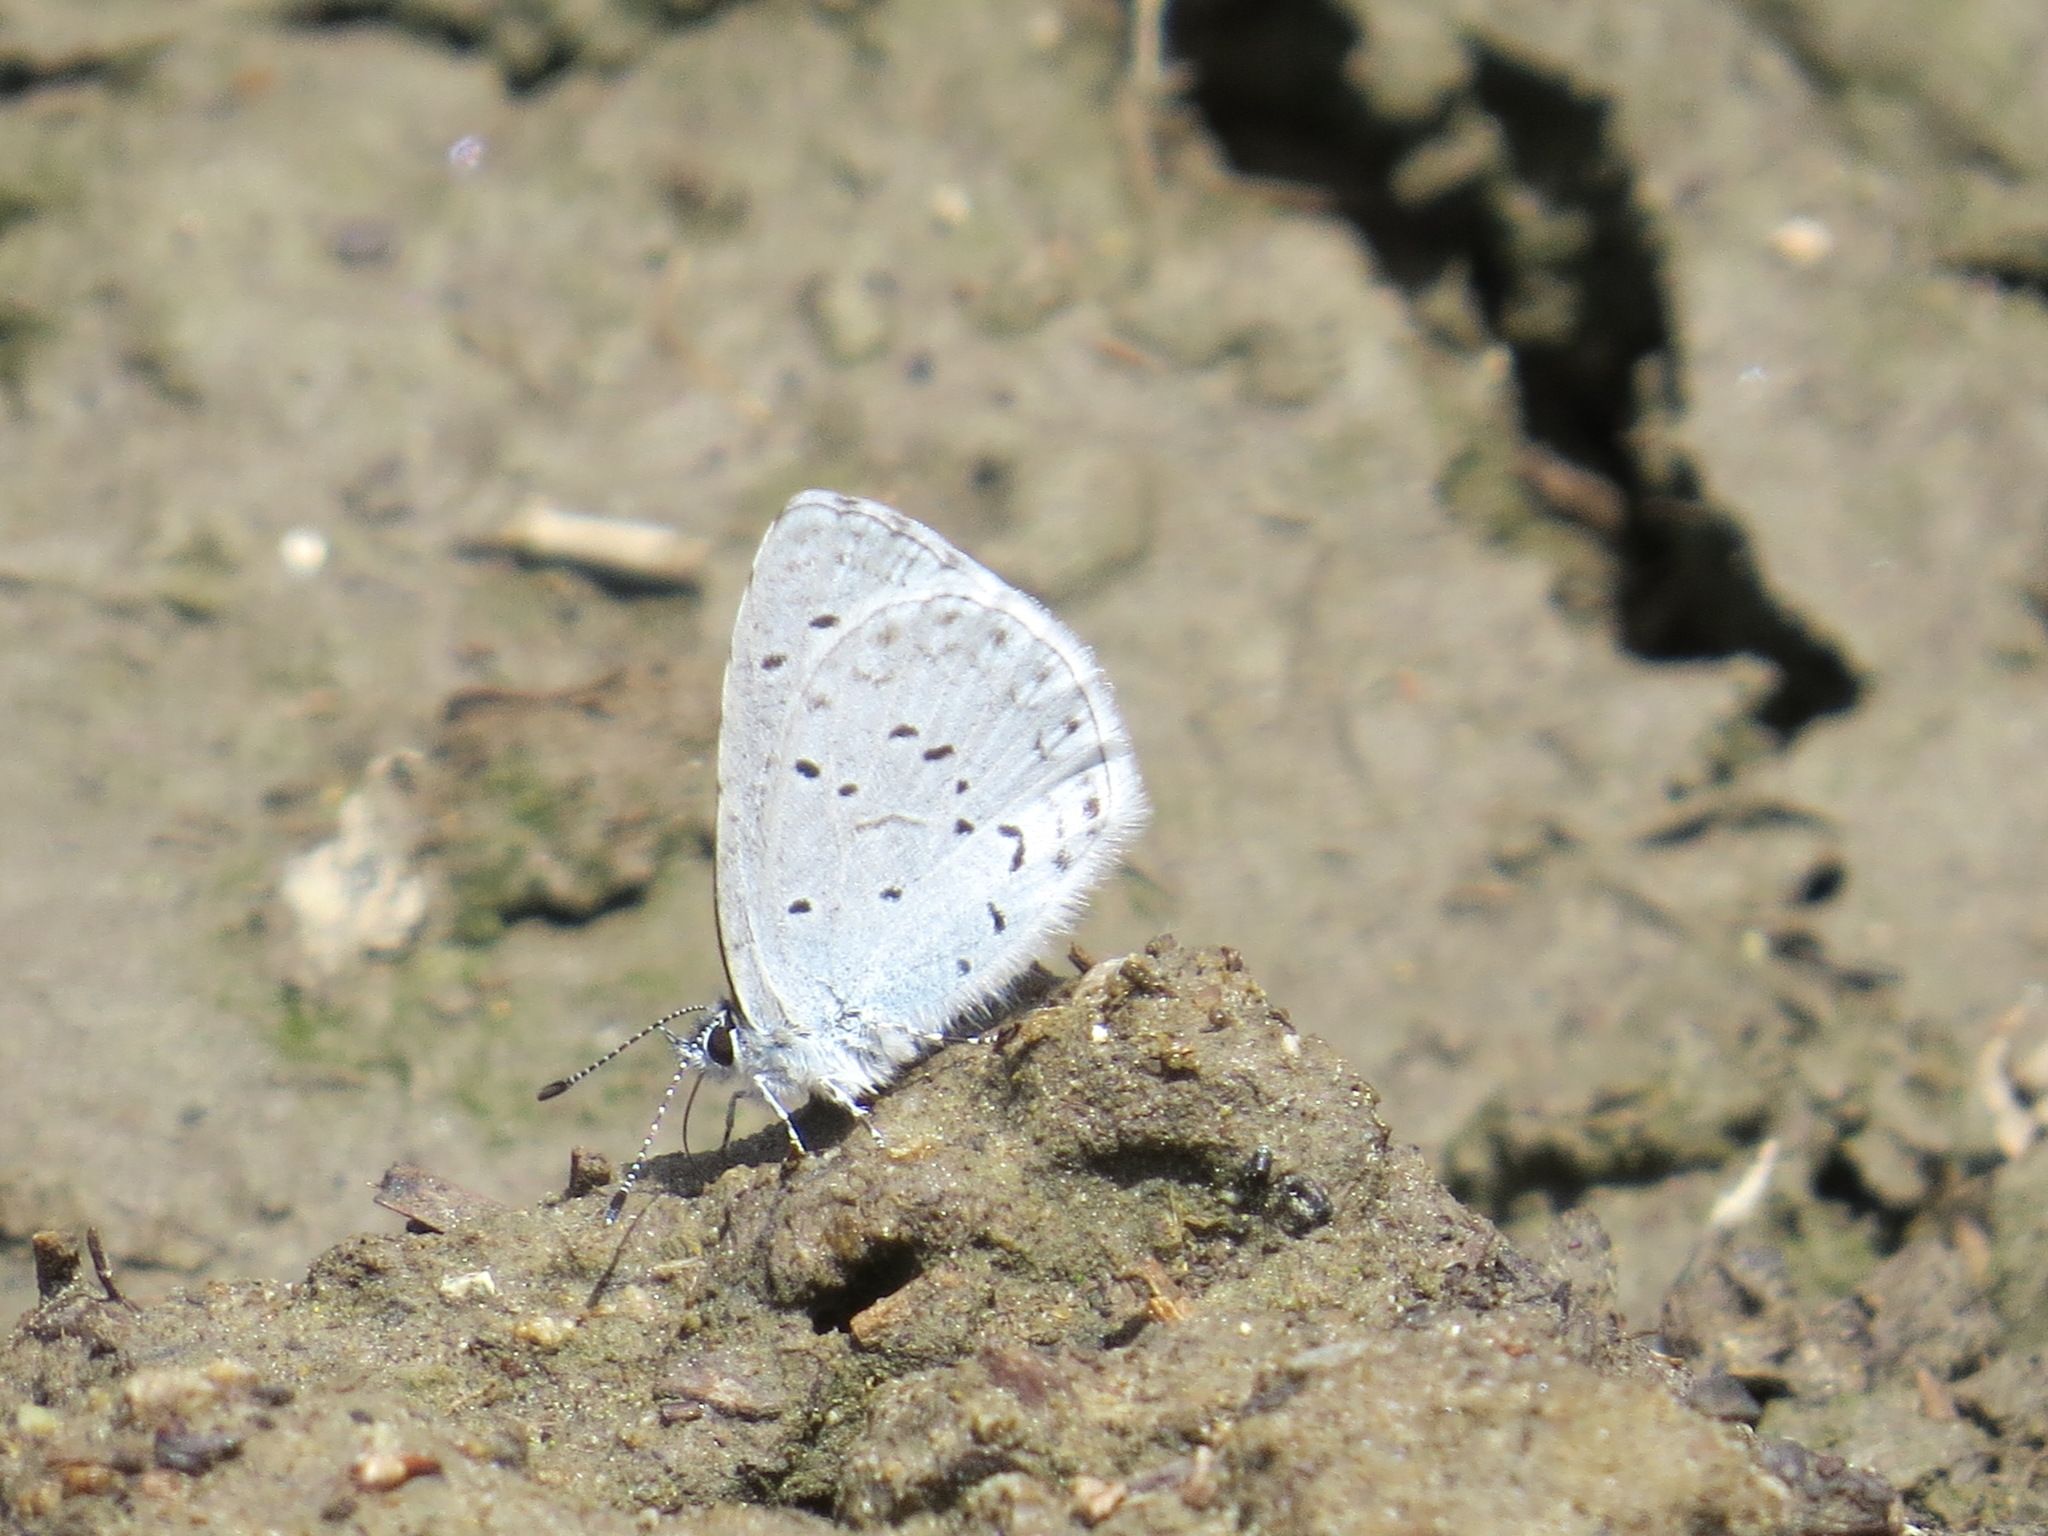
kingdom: Animalia
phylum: Arthropoda
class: Insecta
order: Lepidoptera
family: Lycaenidae
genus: Celastrina
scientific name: Celastrina ladon
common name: Spring azure
